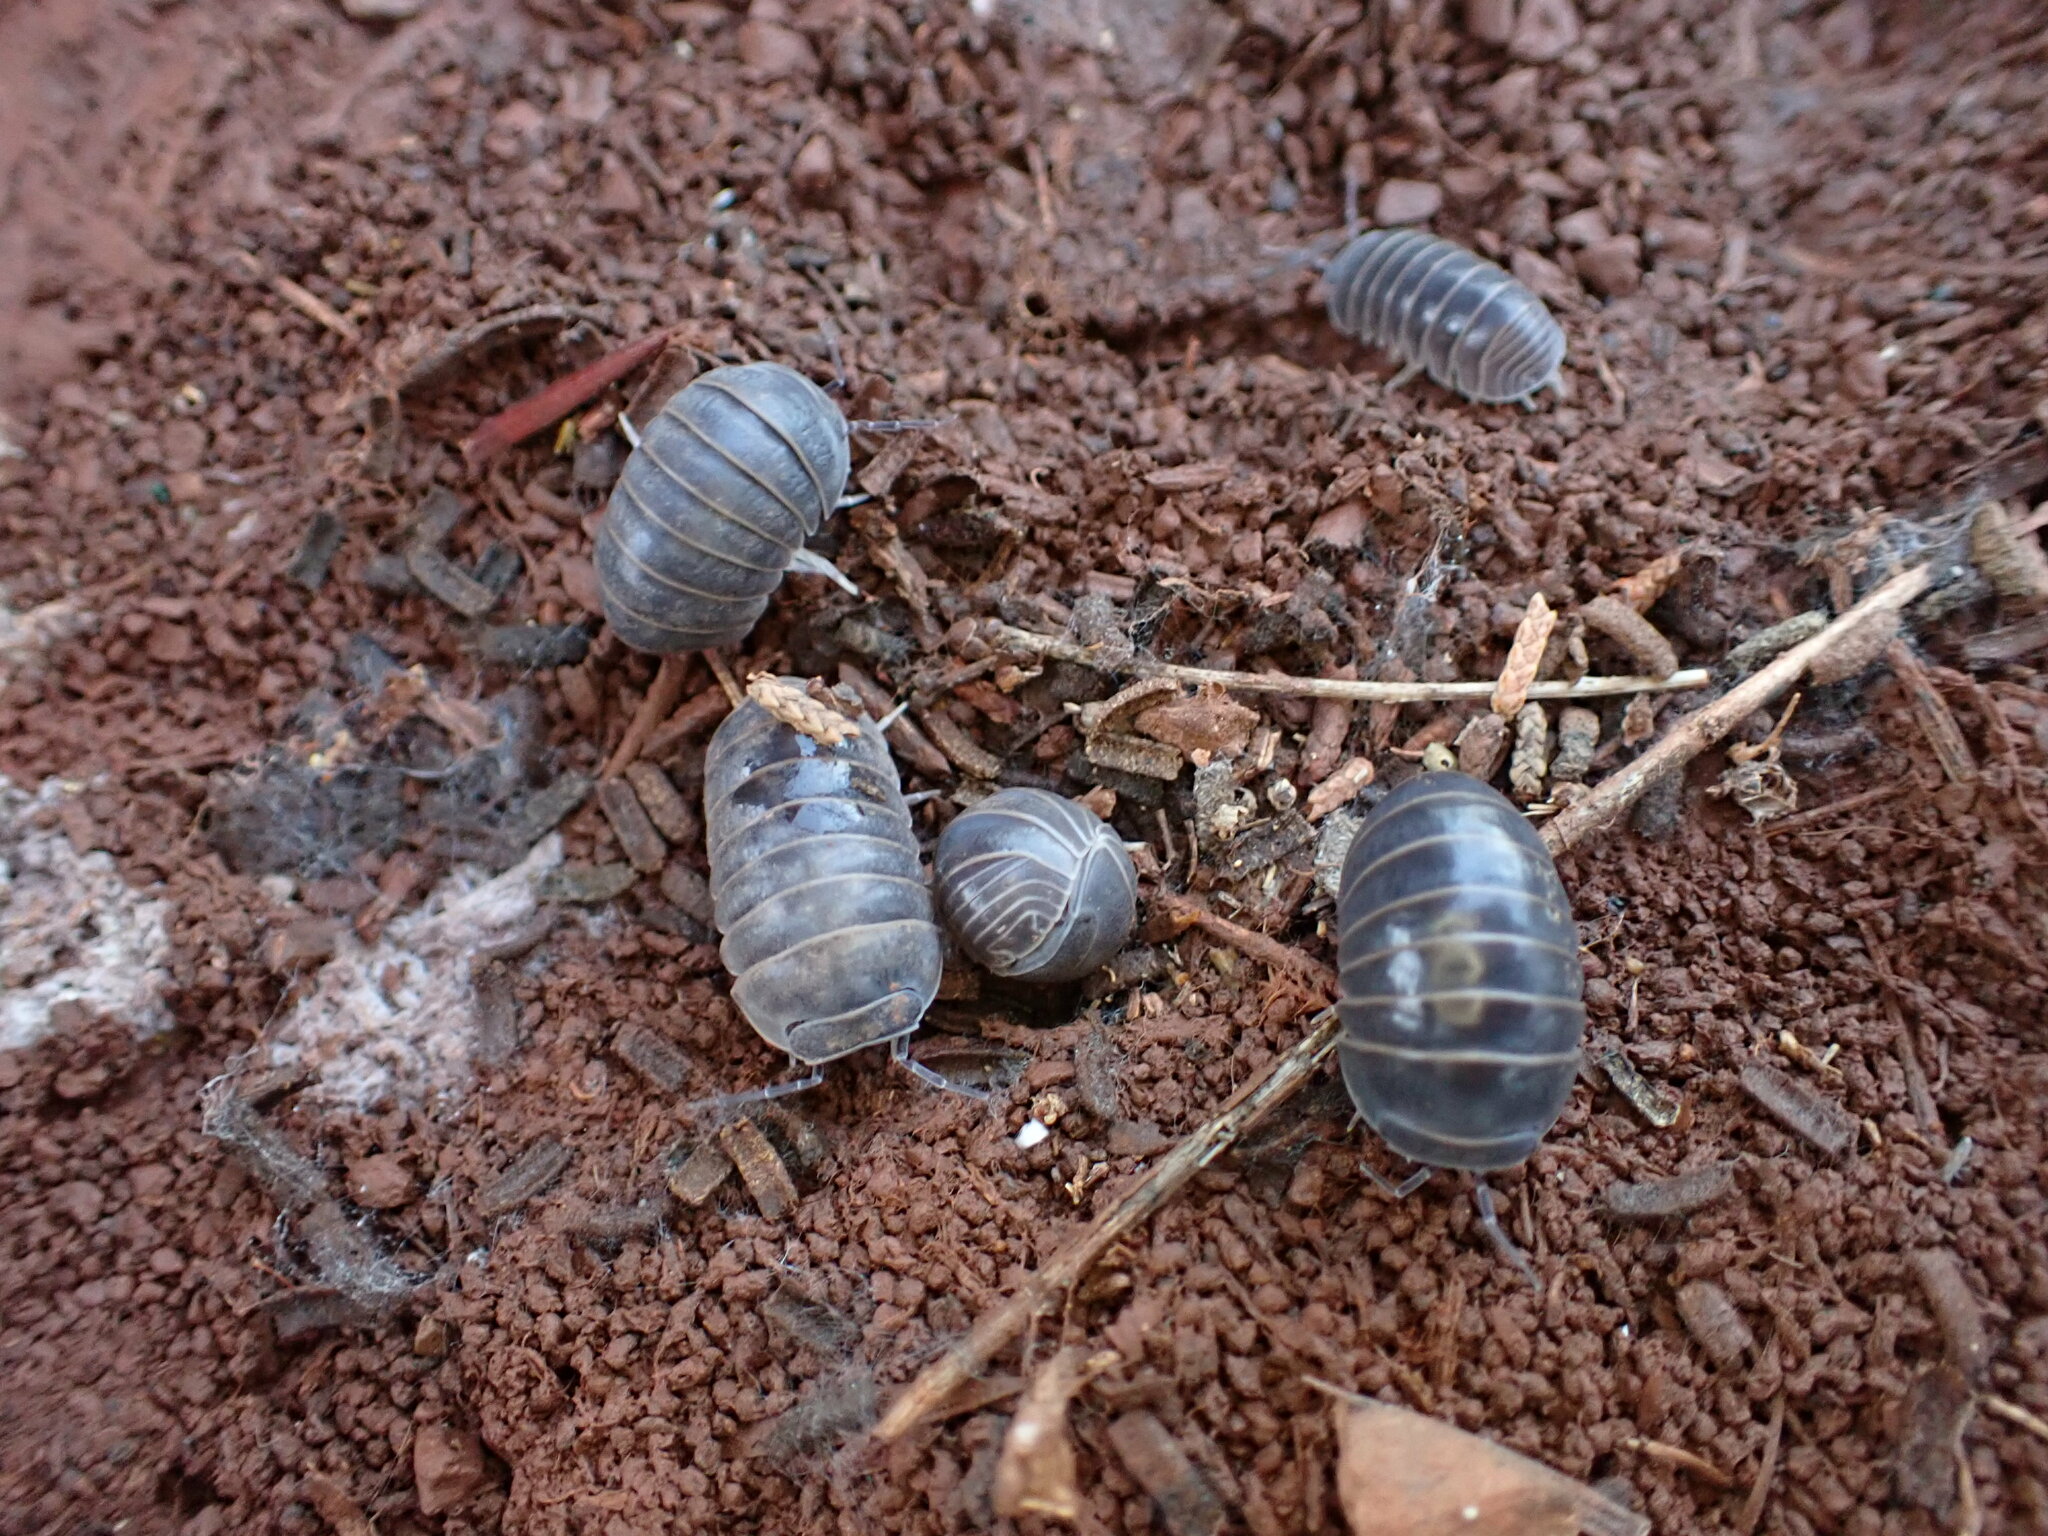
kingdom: Animalia
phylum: Arthropoda
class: Malacostraca
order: Isopoda
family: Armadillidae
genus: Armadillo
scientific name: Armadillo officinalis
